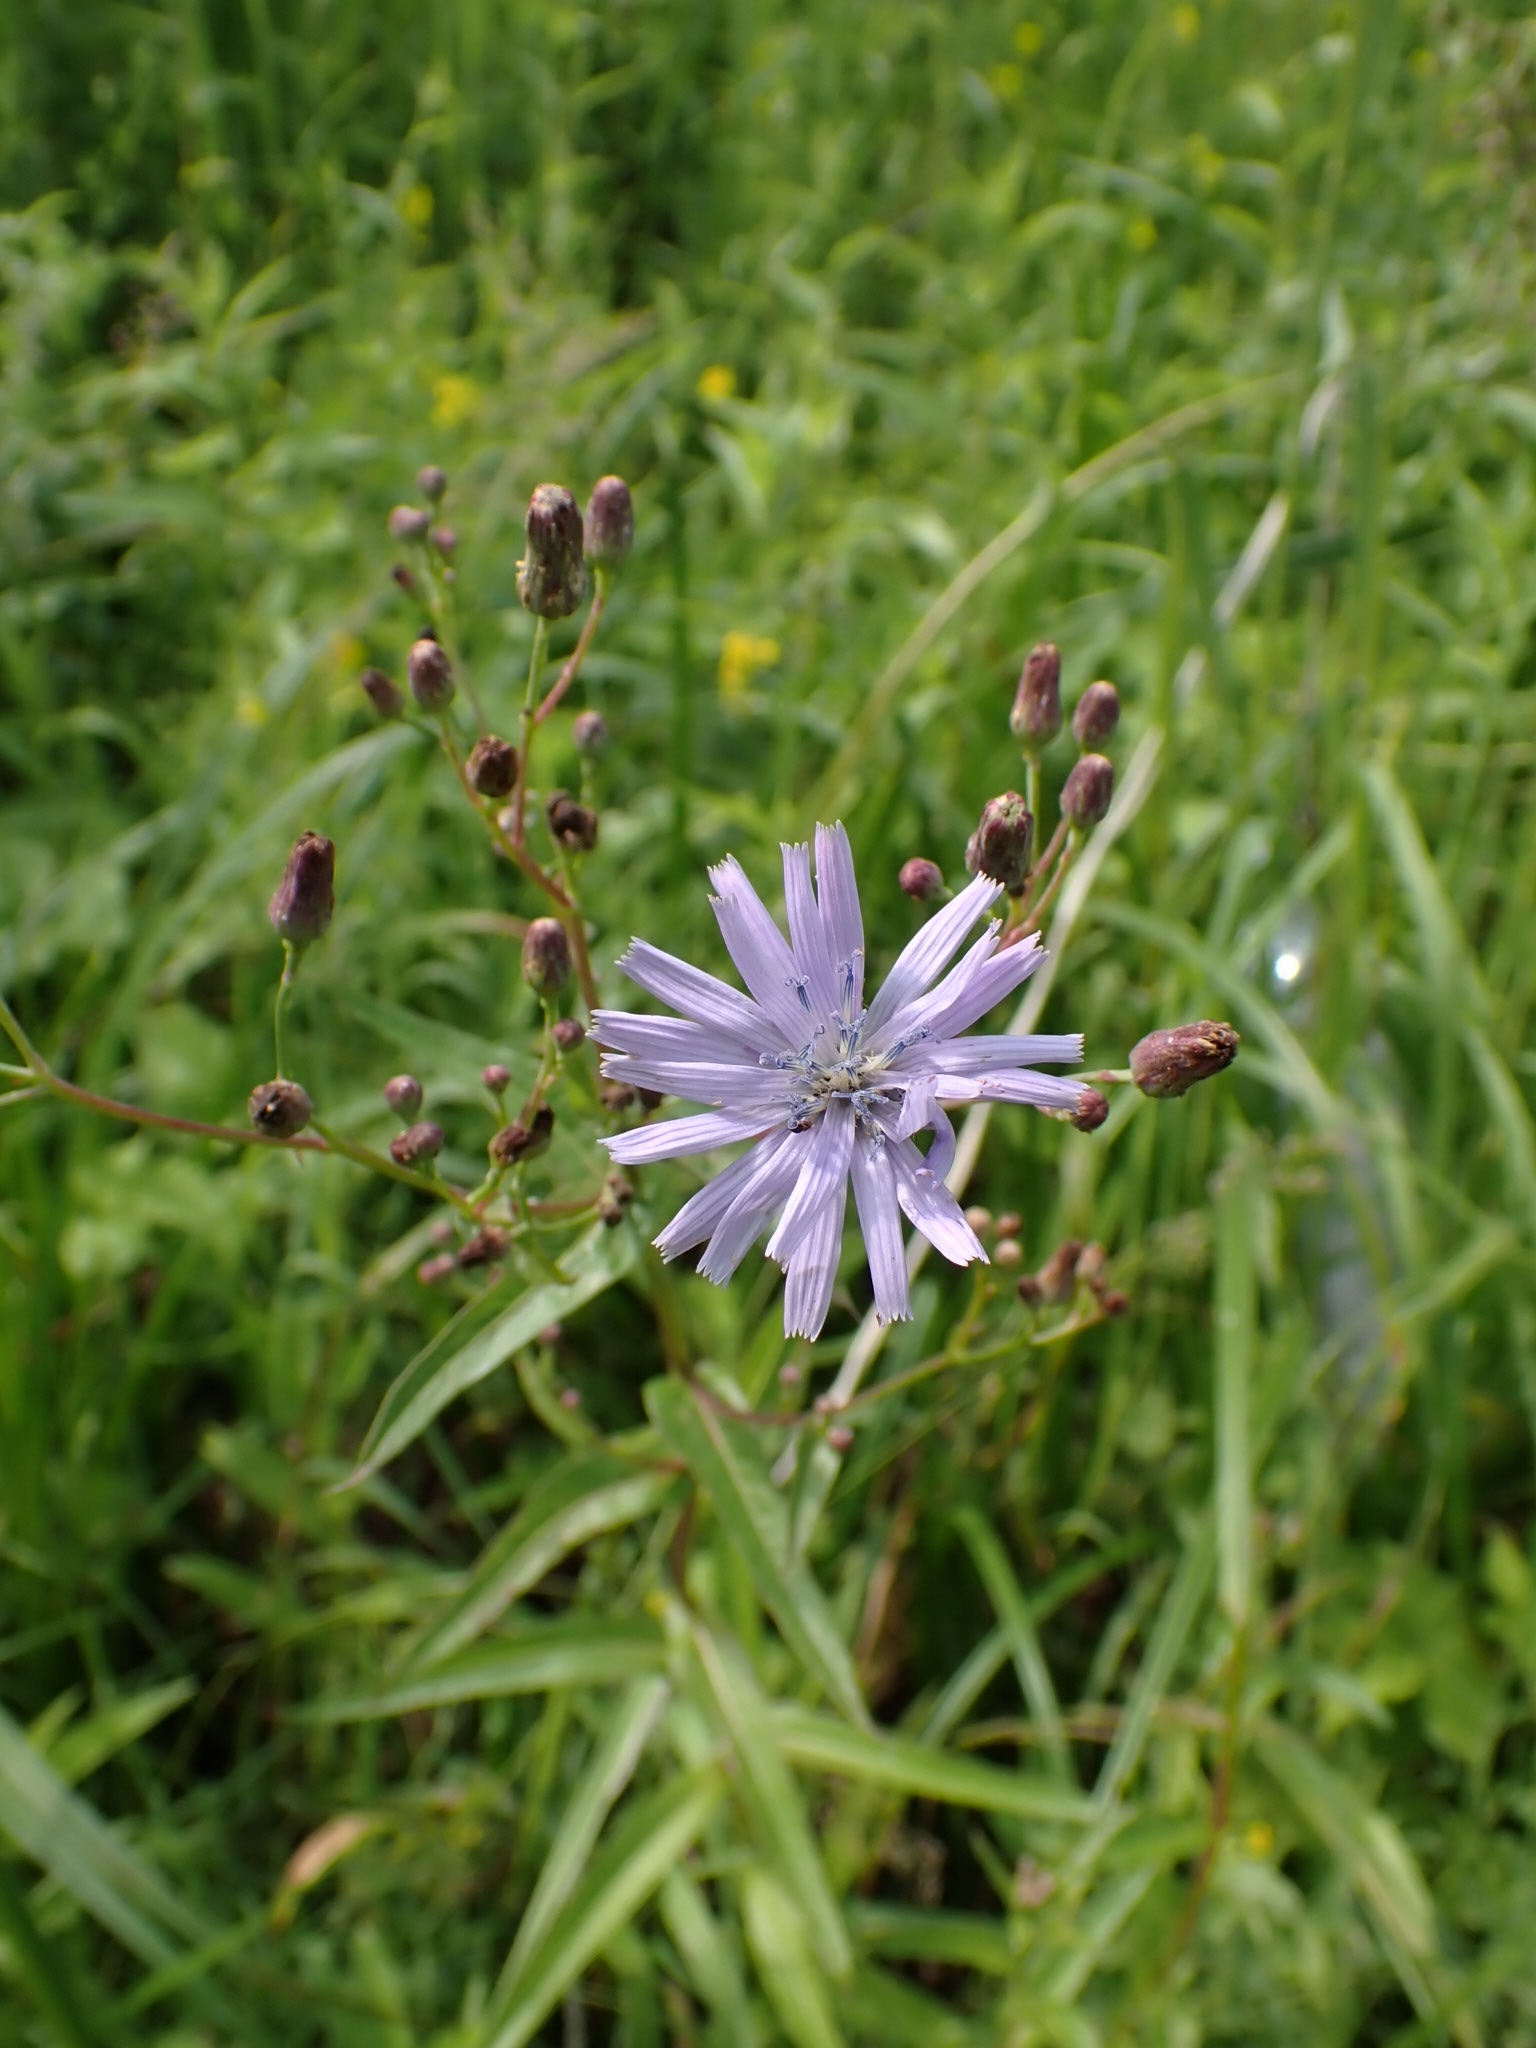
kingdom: Plantae
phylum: Tracheophyta
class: Magnoliopsida
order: Asterales
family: Asteraceae
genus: Lactuca
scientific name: Lactuca sibirica
